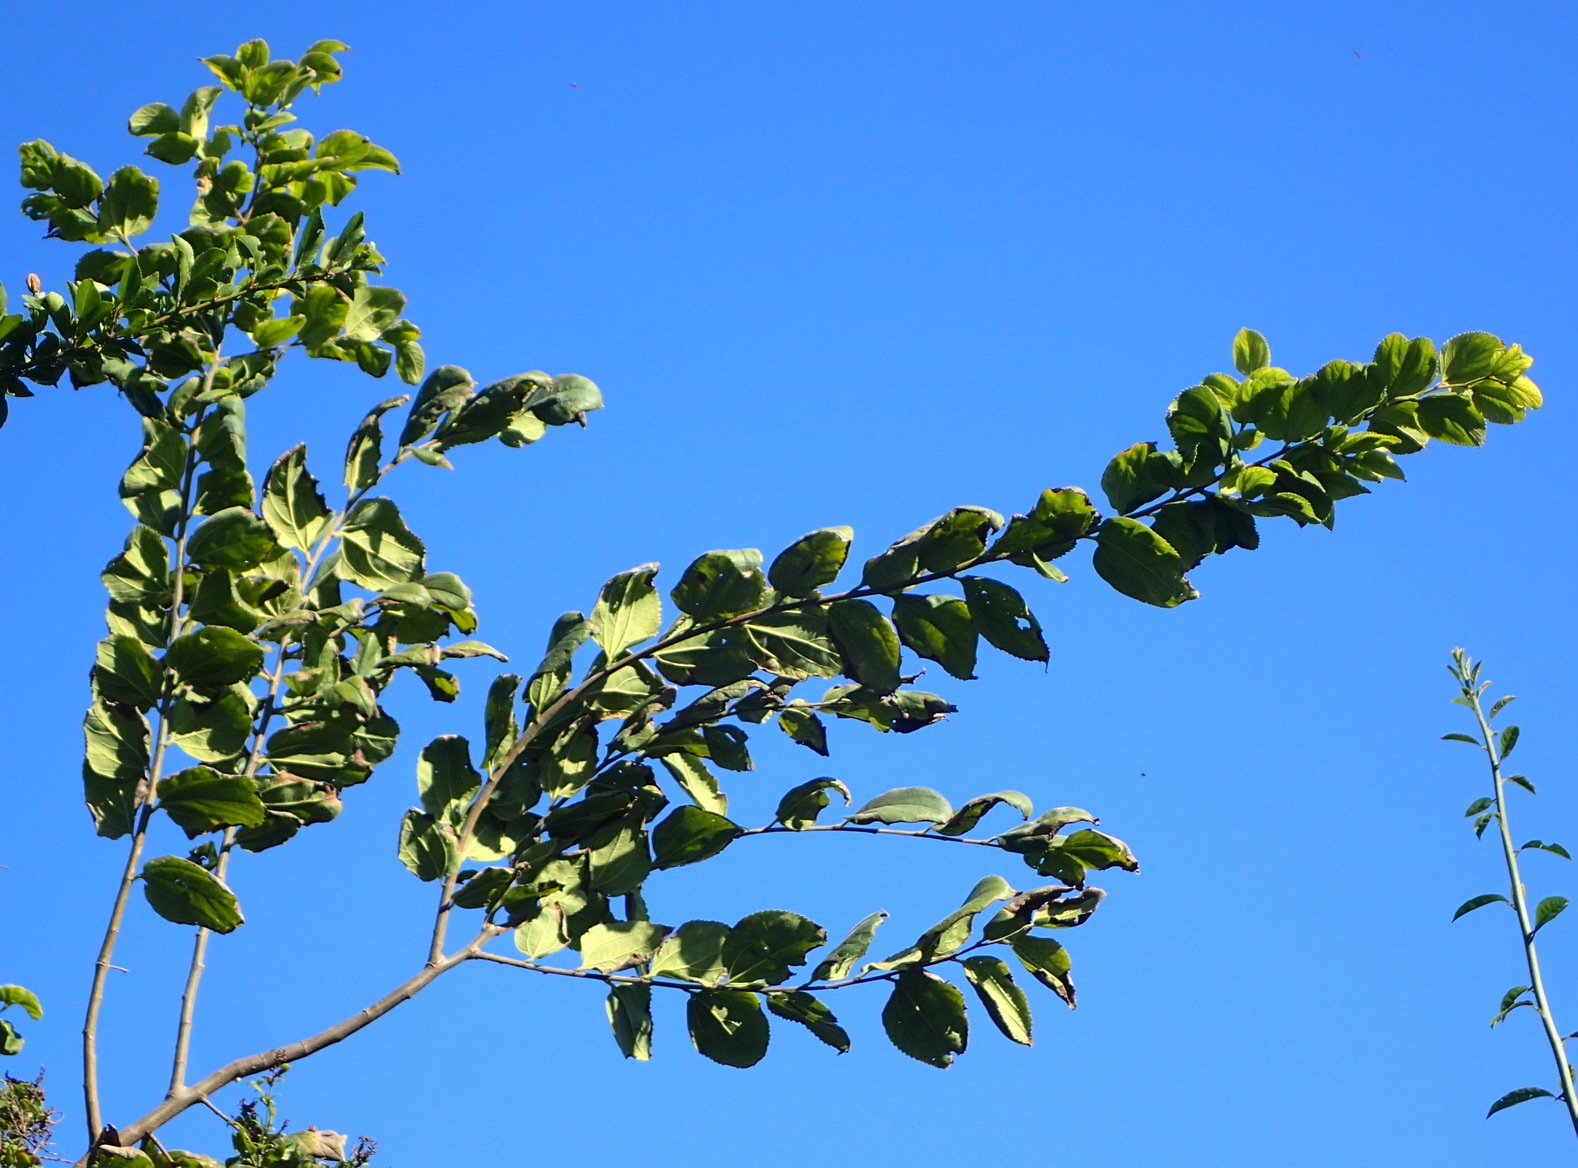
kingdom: Plantae
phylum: Tracheophyta
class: Magnoliopsida
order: Rosales
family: Cannabaceae
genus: Celtis
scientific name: Celtis africana
